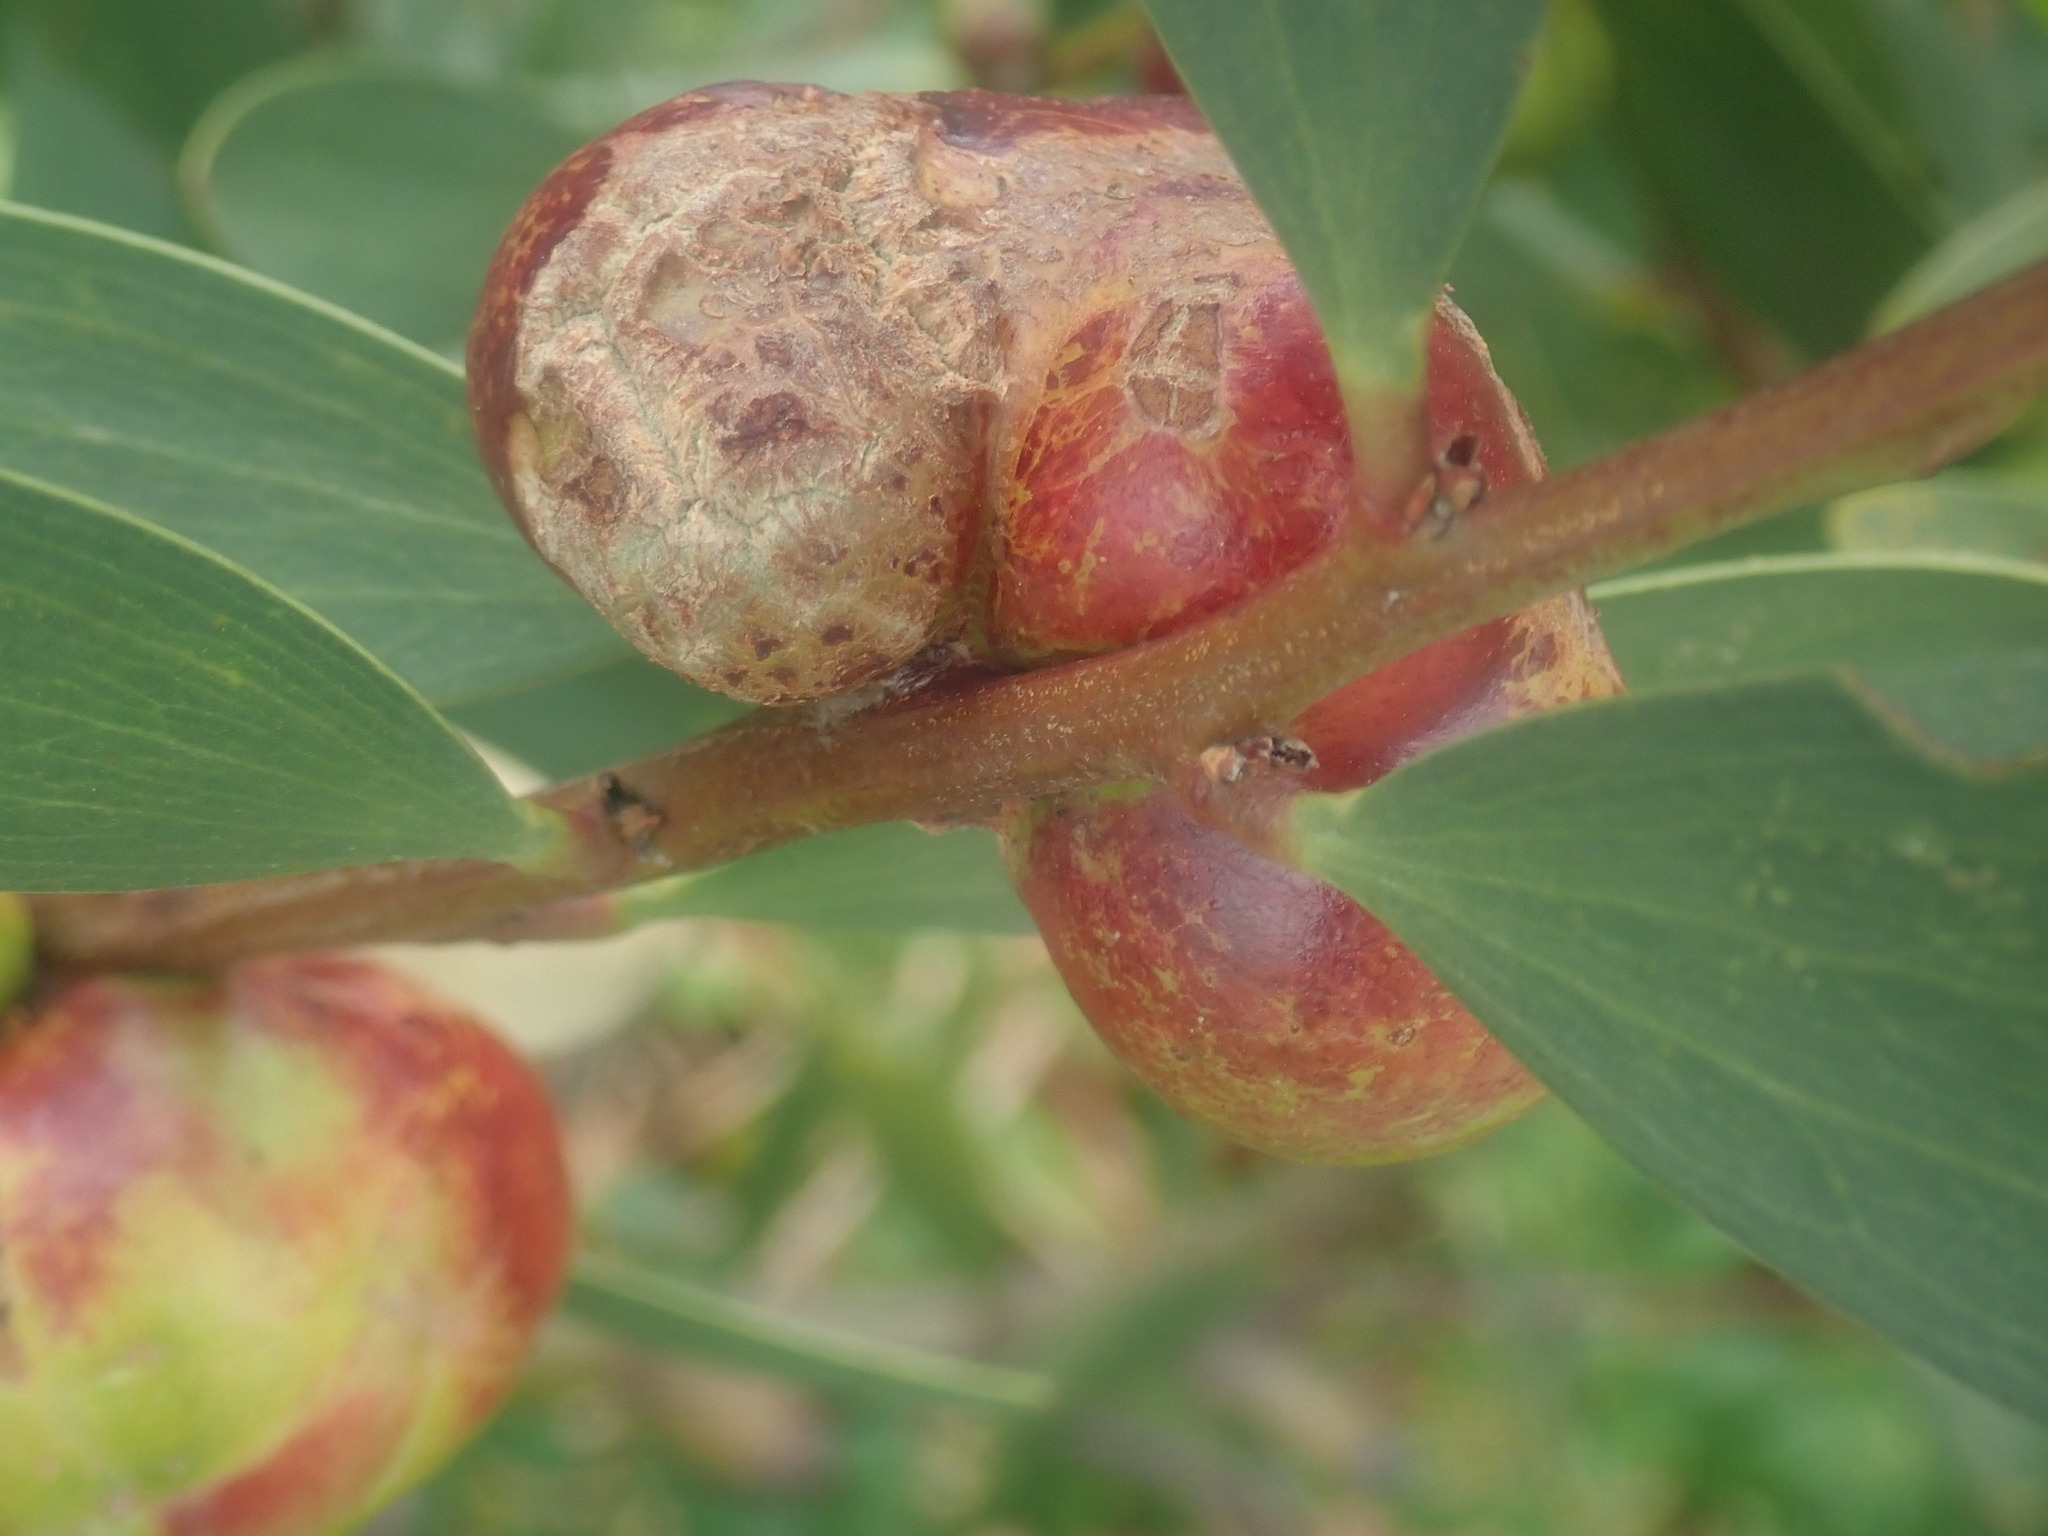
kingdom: Animalia
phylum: Arthropoda
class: Insecta
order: Hymenoptera
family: Pteromalidae
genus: Trichilogaster
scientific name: Trichilogaster acaciaelongifoliae
